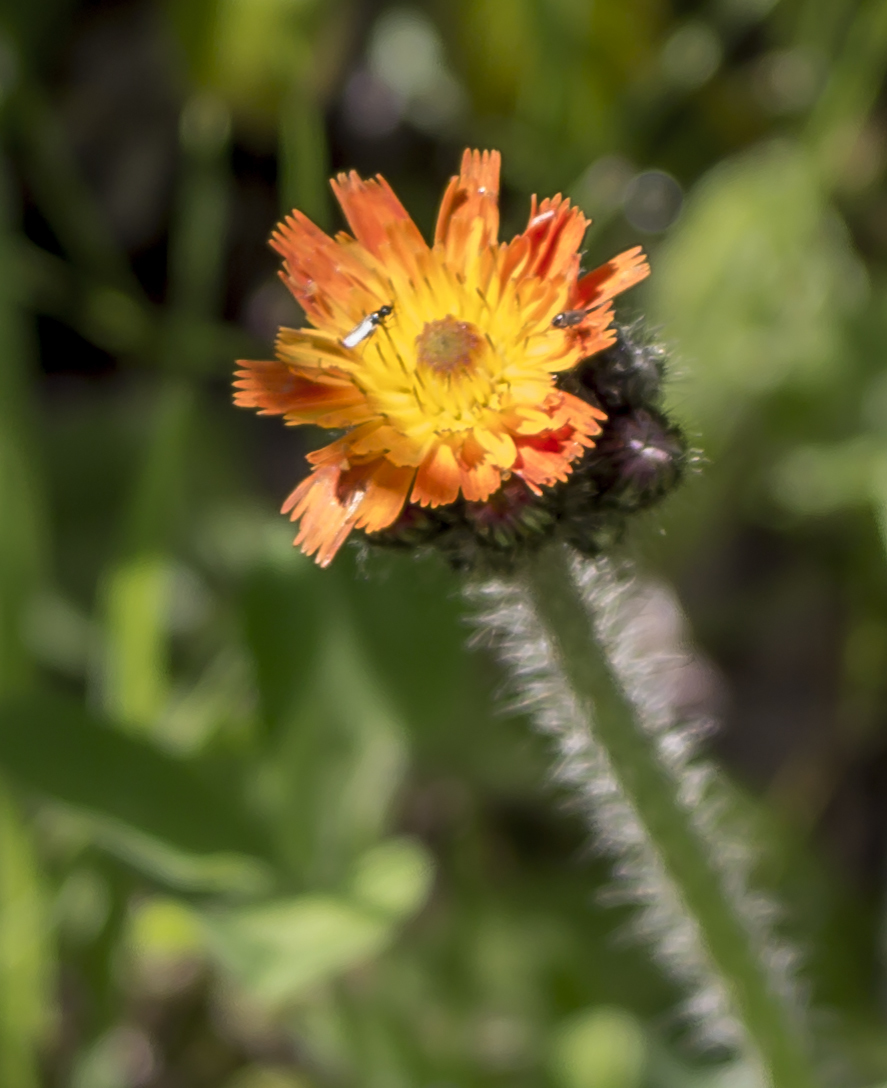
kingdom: Plantae
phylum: Tracheophyta
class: Magnoliopsida
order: Asterales
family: Asteraceae
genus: Pilosella
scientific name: Pilosella aurantiaca
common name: Fox-and-cubs
